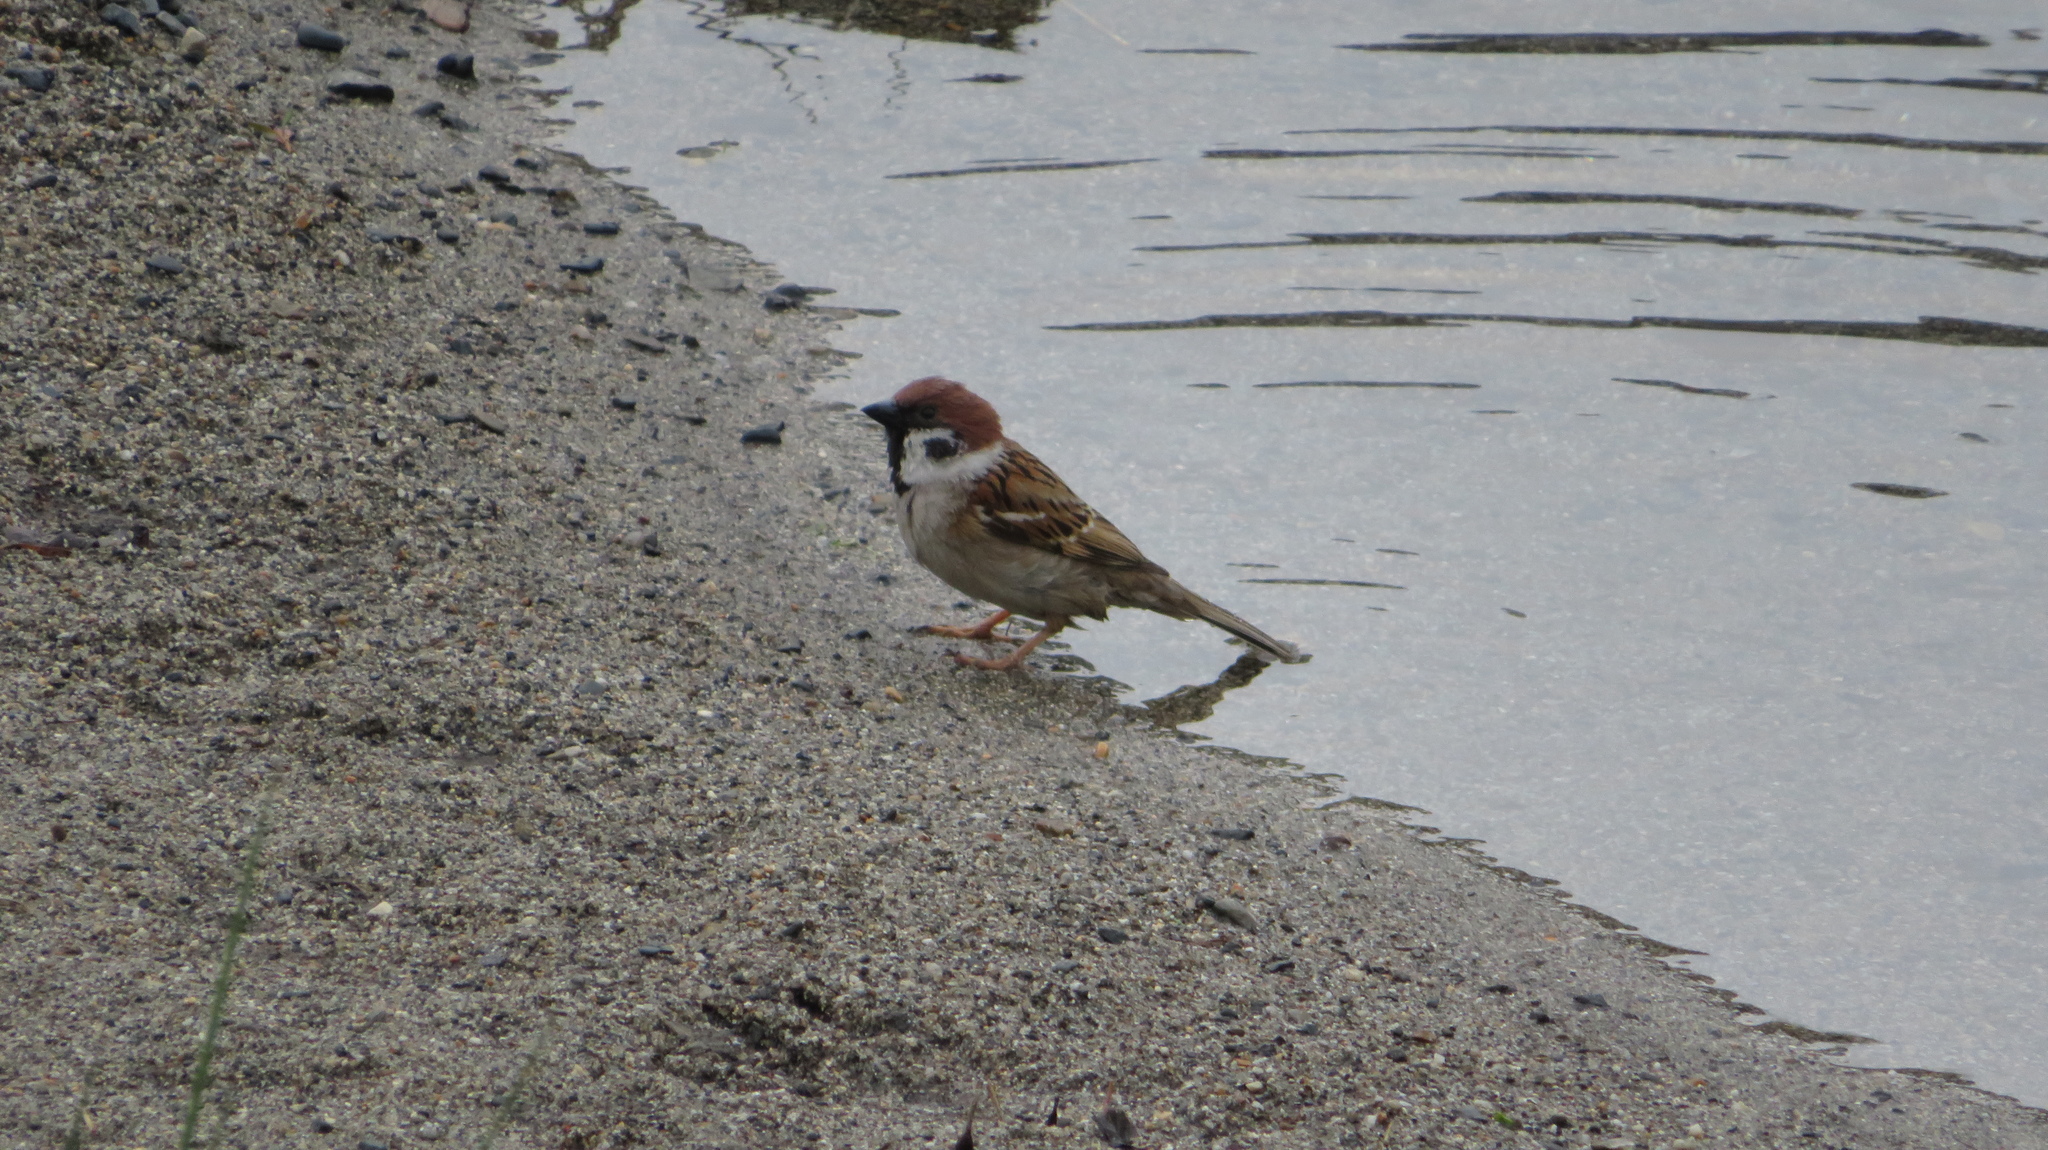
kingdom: Animalia
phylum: Chordata
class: Aves
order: Passeriformes
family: Passeridae
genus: Passer
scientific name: Passer montanus
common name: Eurasian tree sparrow
